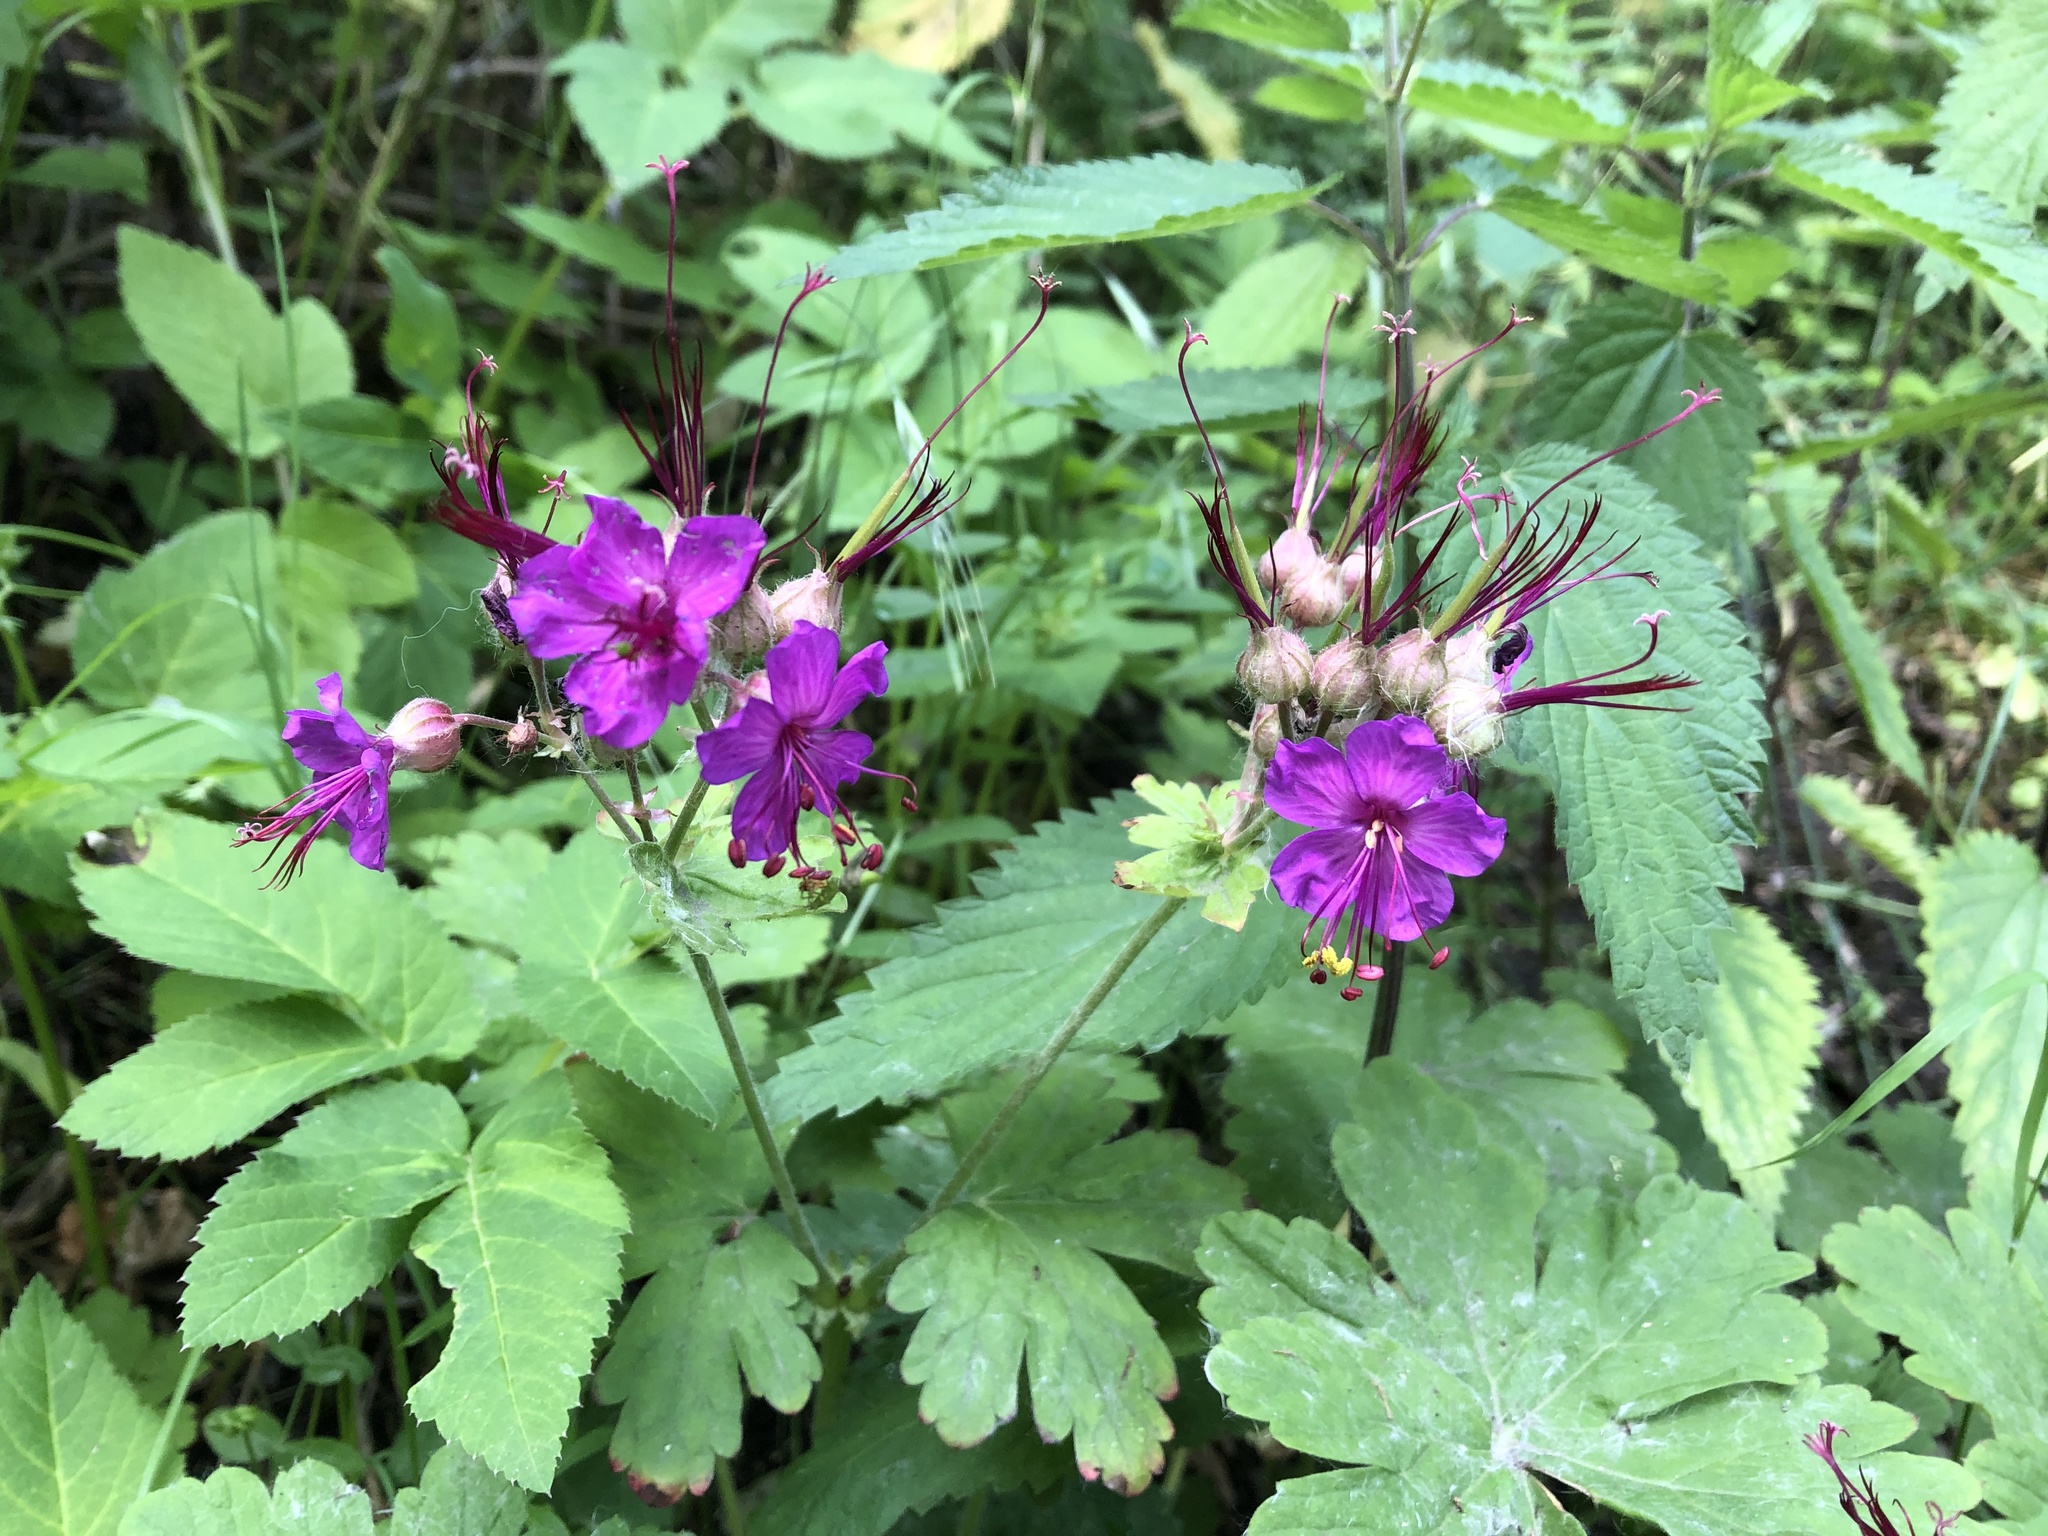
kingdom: Plantae
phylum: Tracheophyta
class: Magnoliopsida
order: Geraniales
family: Geraniaceae
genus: Geranium
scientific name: Geranium macrorrhizum
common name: Rock crane's-bill
